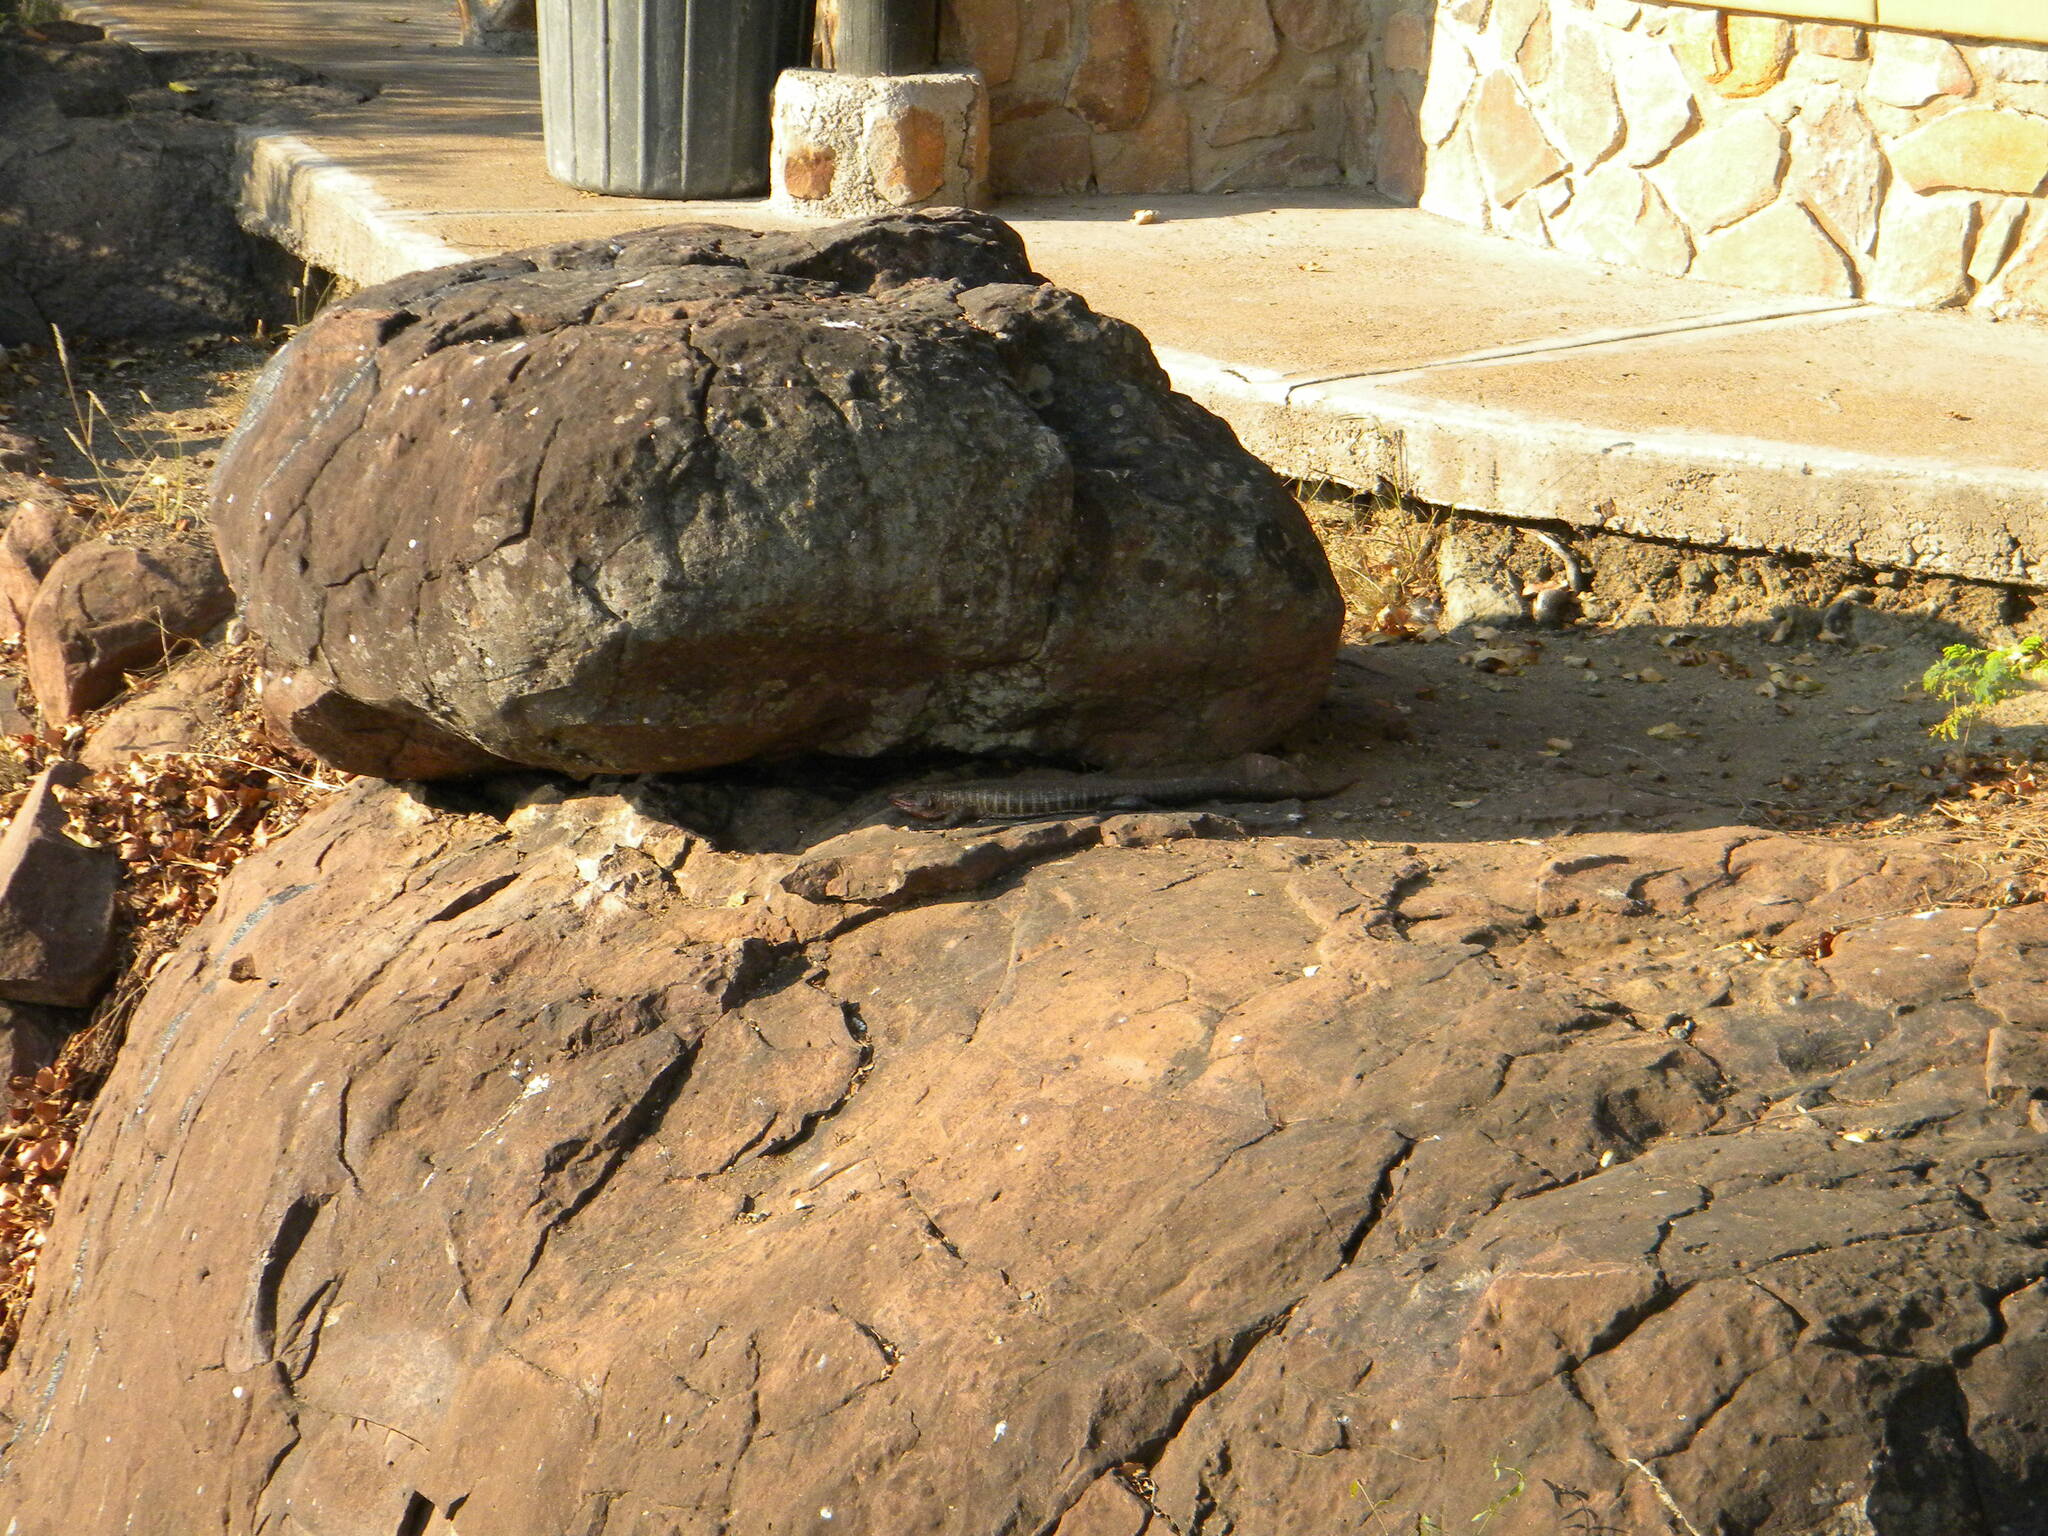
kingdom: Animalia
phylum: Chordata
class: Squamata
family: Gerrhosauridae
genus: Matobosaurus
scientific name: Matobosaurus validus
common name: Common giant plated lizard
